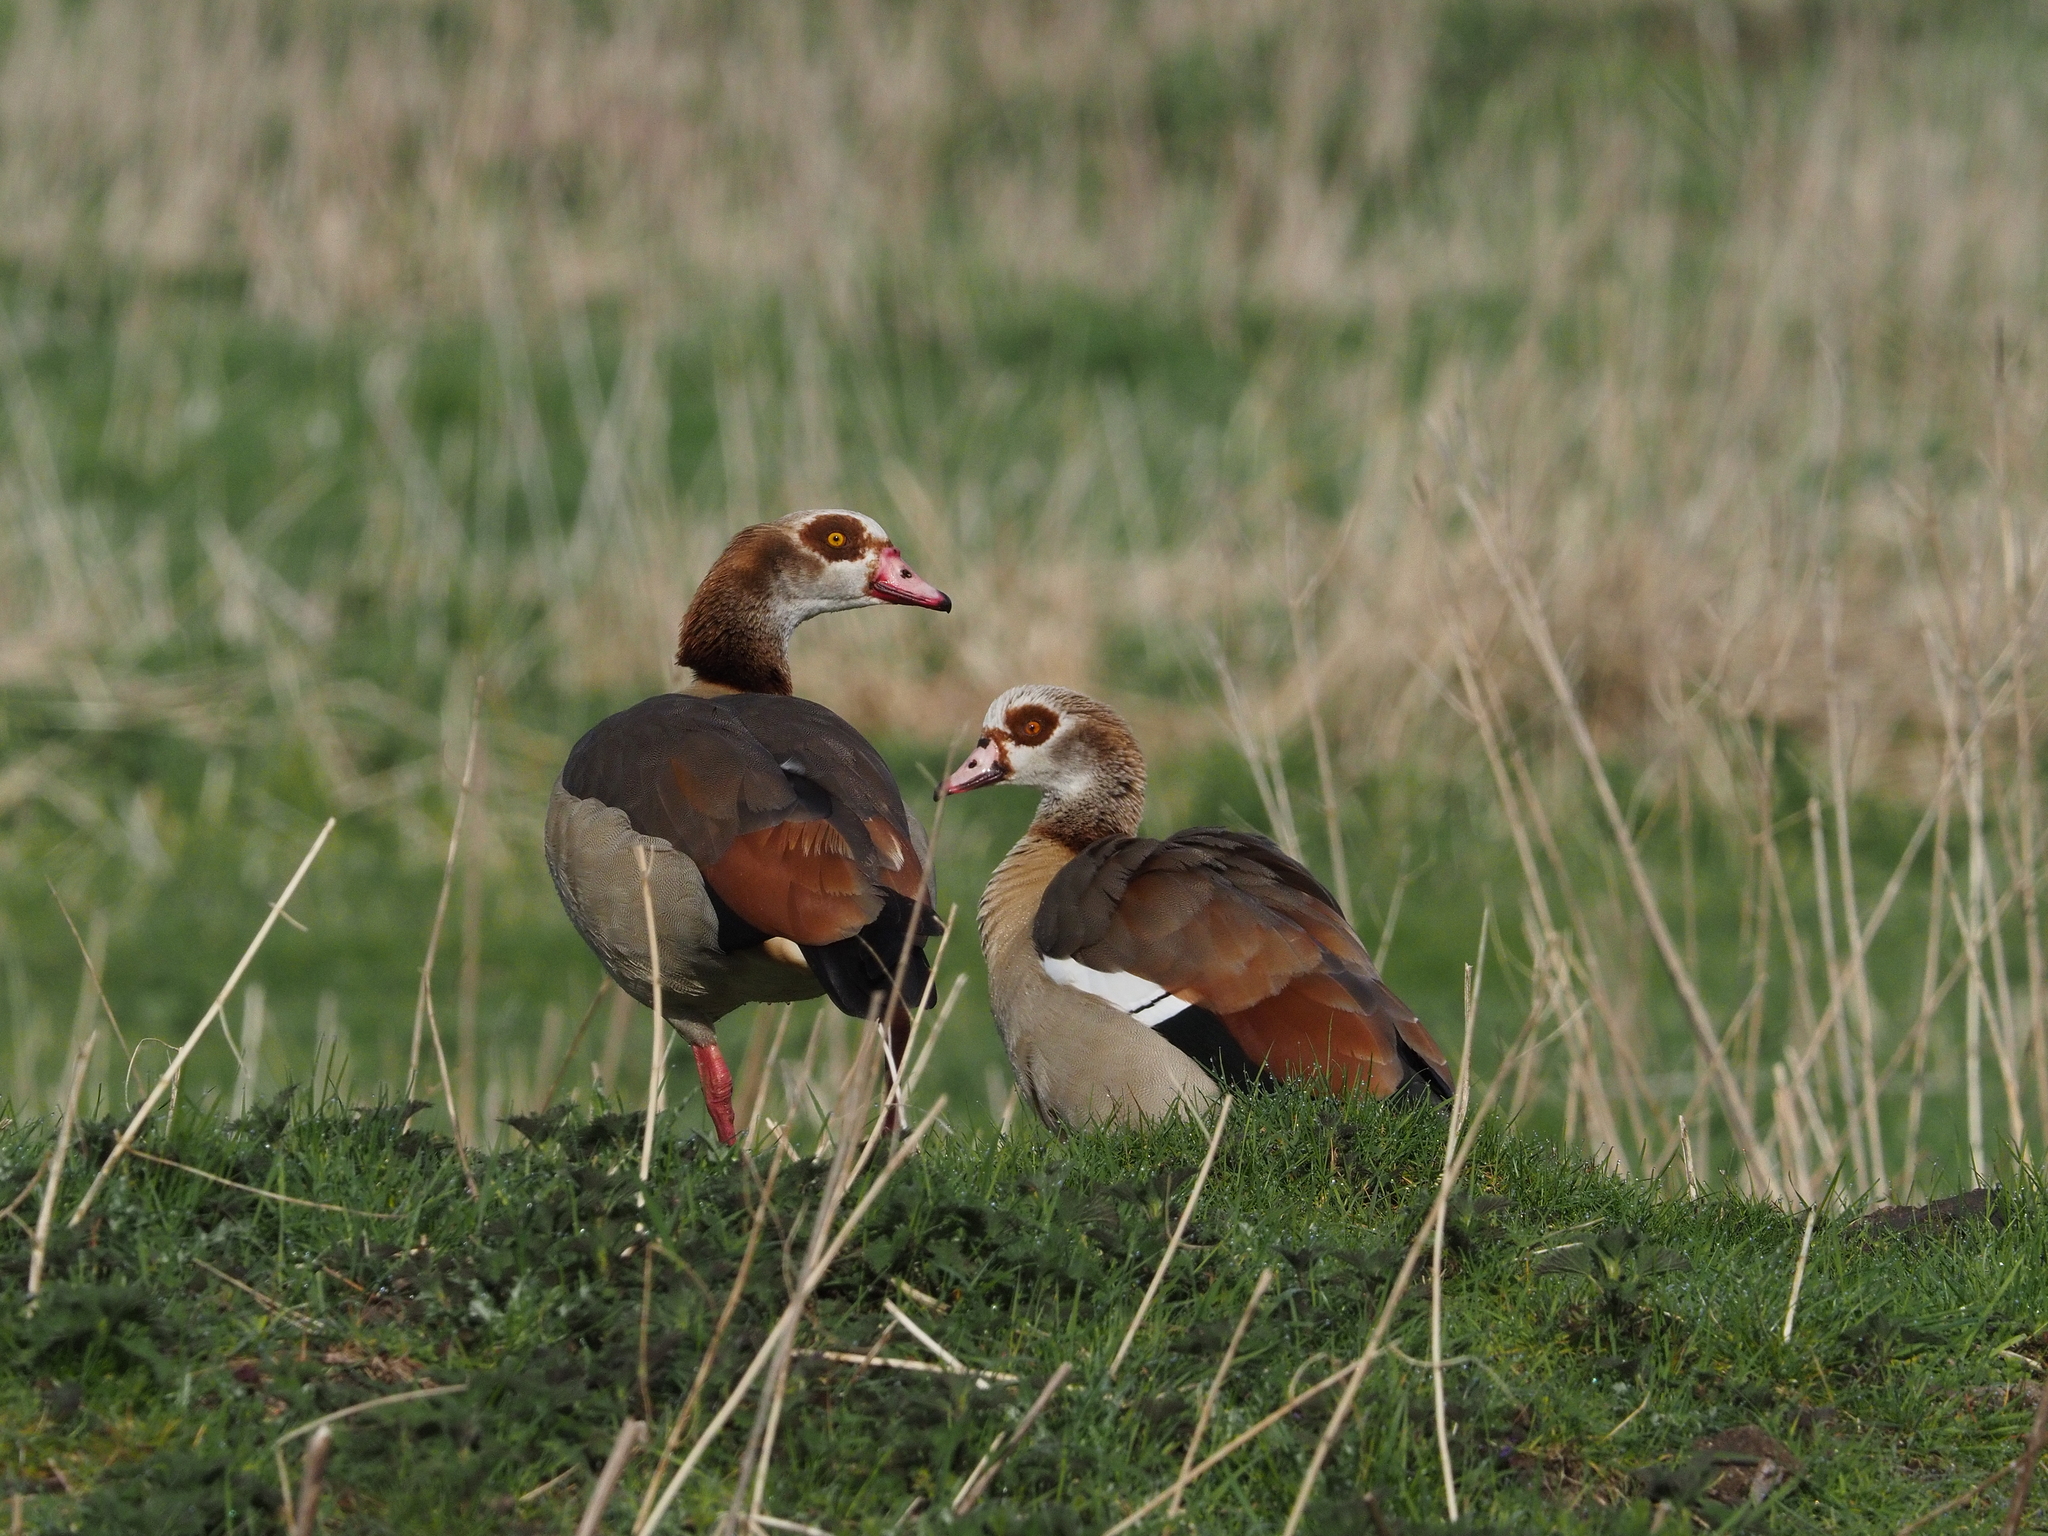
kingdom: Animalia
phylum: Chordata
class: Aves
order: Anseriformes
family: Anatidae
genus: Alopochen
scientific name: Alopochen aegyptiaca
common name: Egyptian goose
